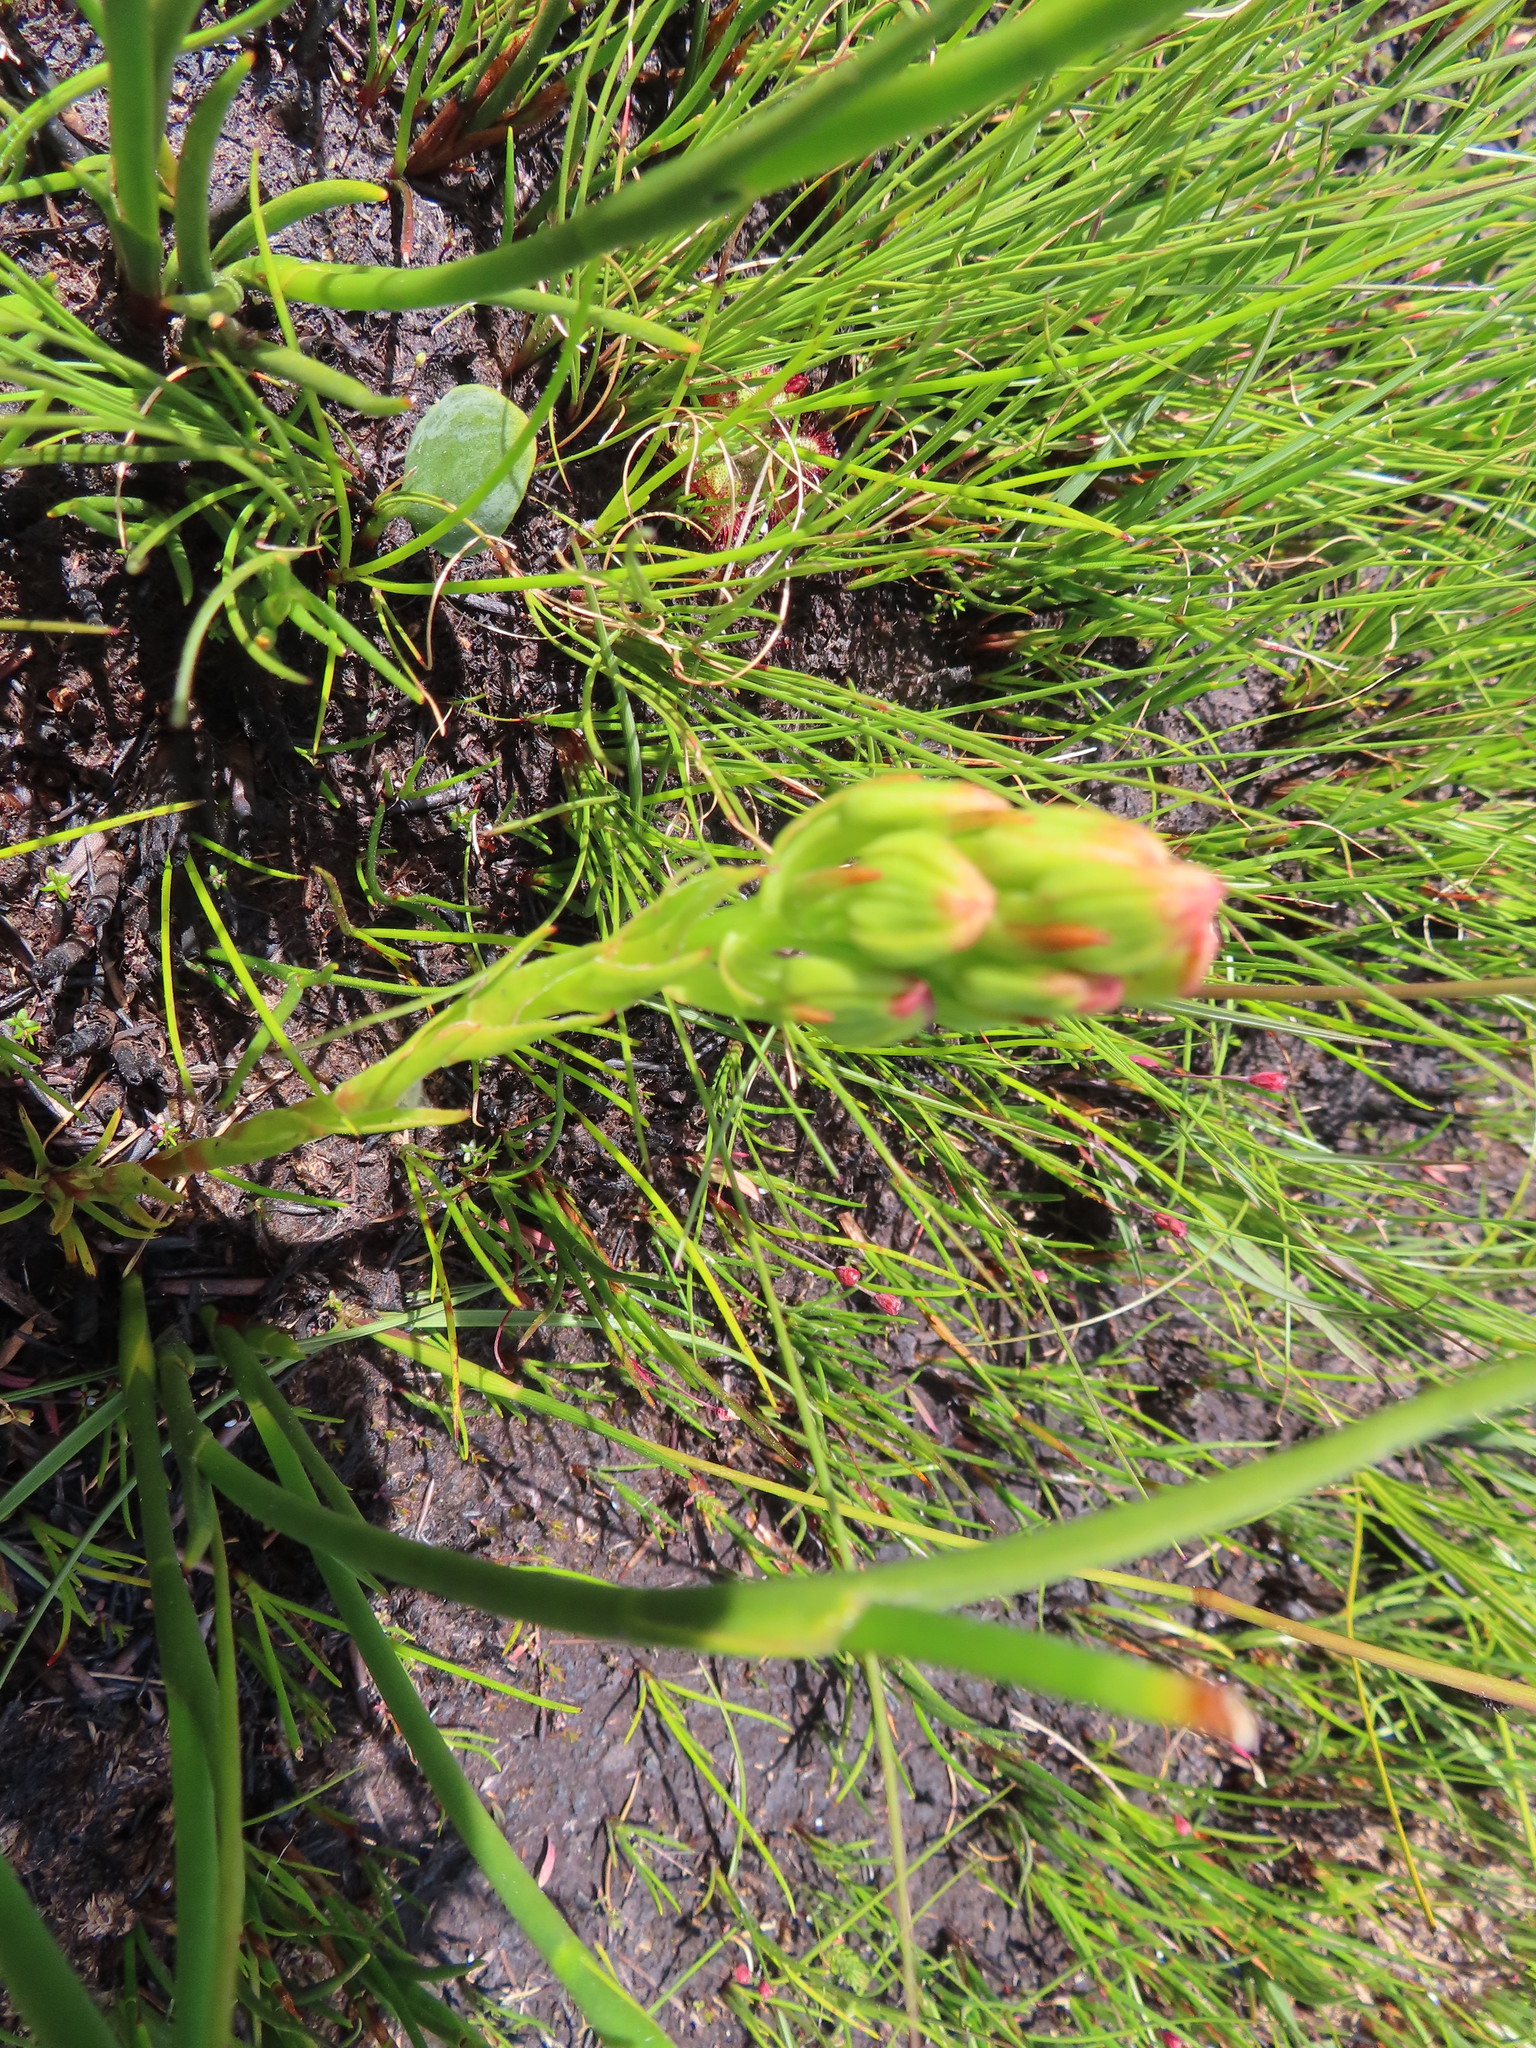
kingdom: Plantae
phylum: Tracheophyta
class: Liliopsida
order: Asparagales
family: Orchidaceae
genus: Ceratandra
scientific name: Ceratandra atrata
